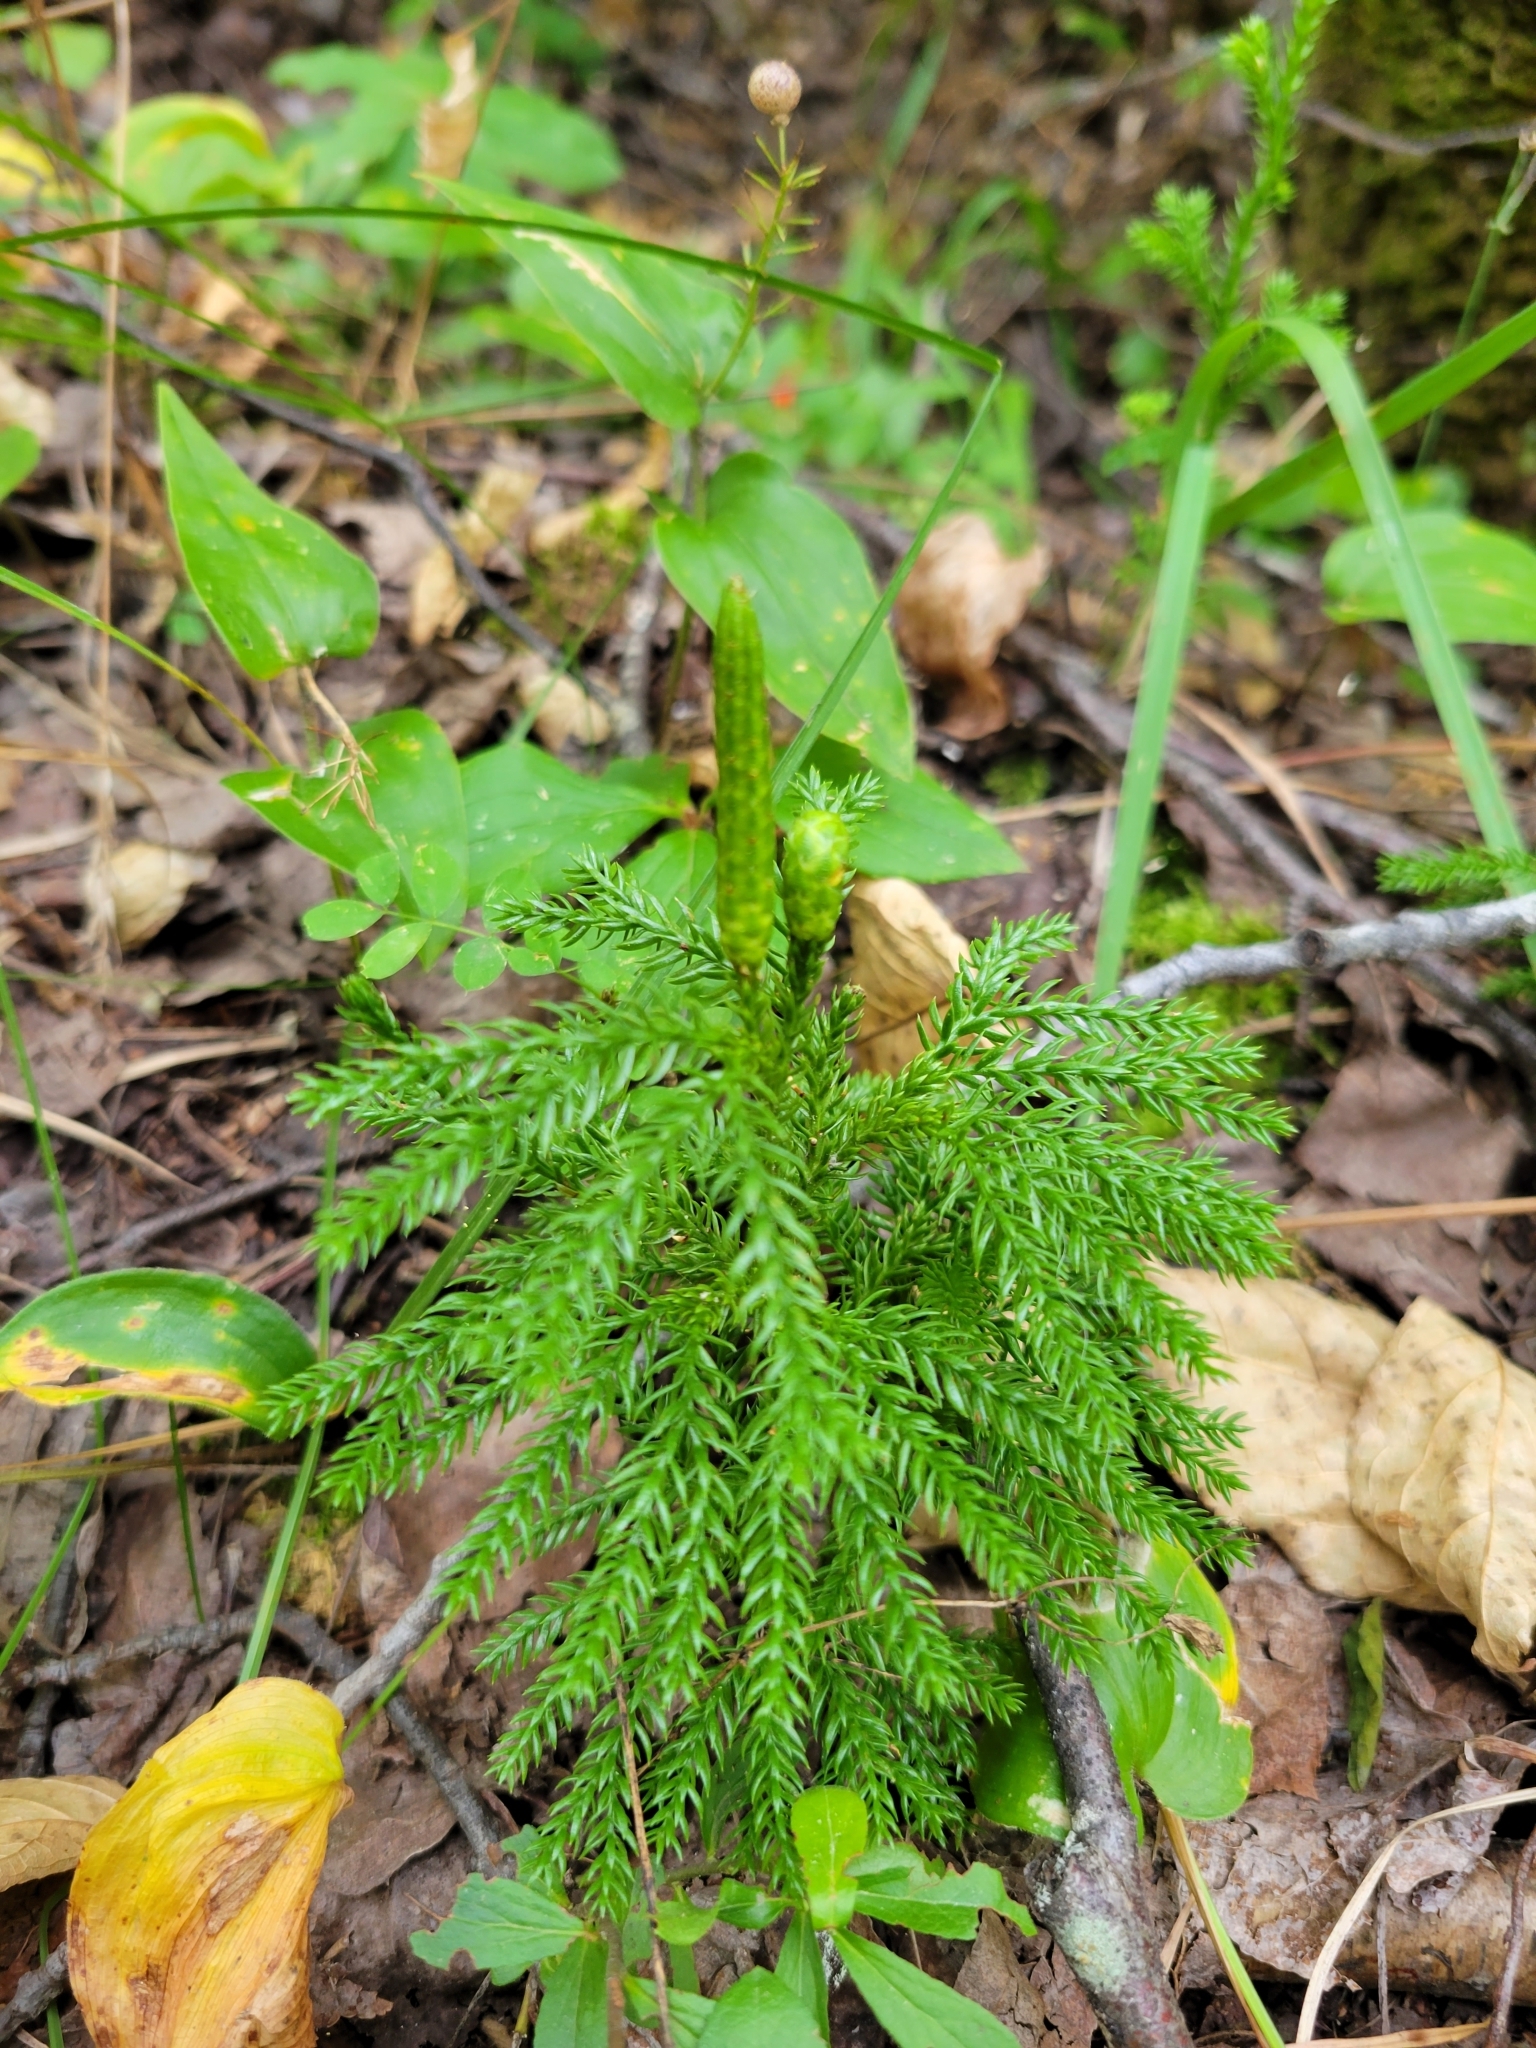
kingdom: Plantae
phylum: Tracheophyta
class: Lycopodiopsida
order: Lycopodiales
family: Lycopodiaceae
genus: Dendrolycopodium
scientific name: Dendrolycopodium dendroideum
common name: Northern tree-clubmoss
